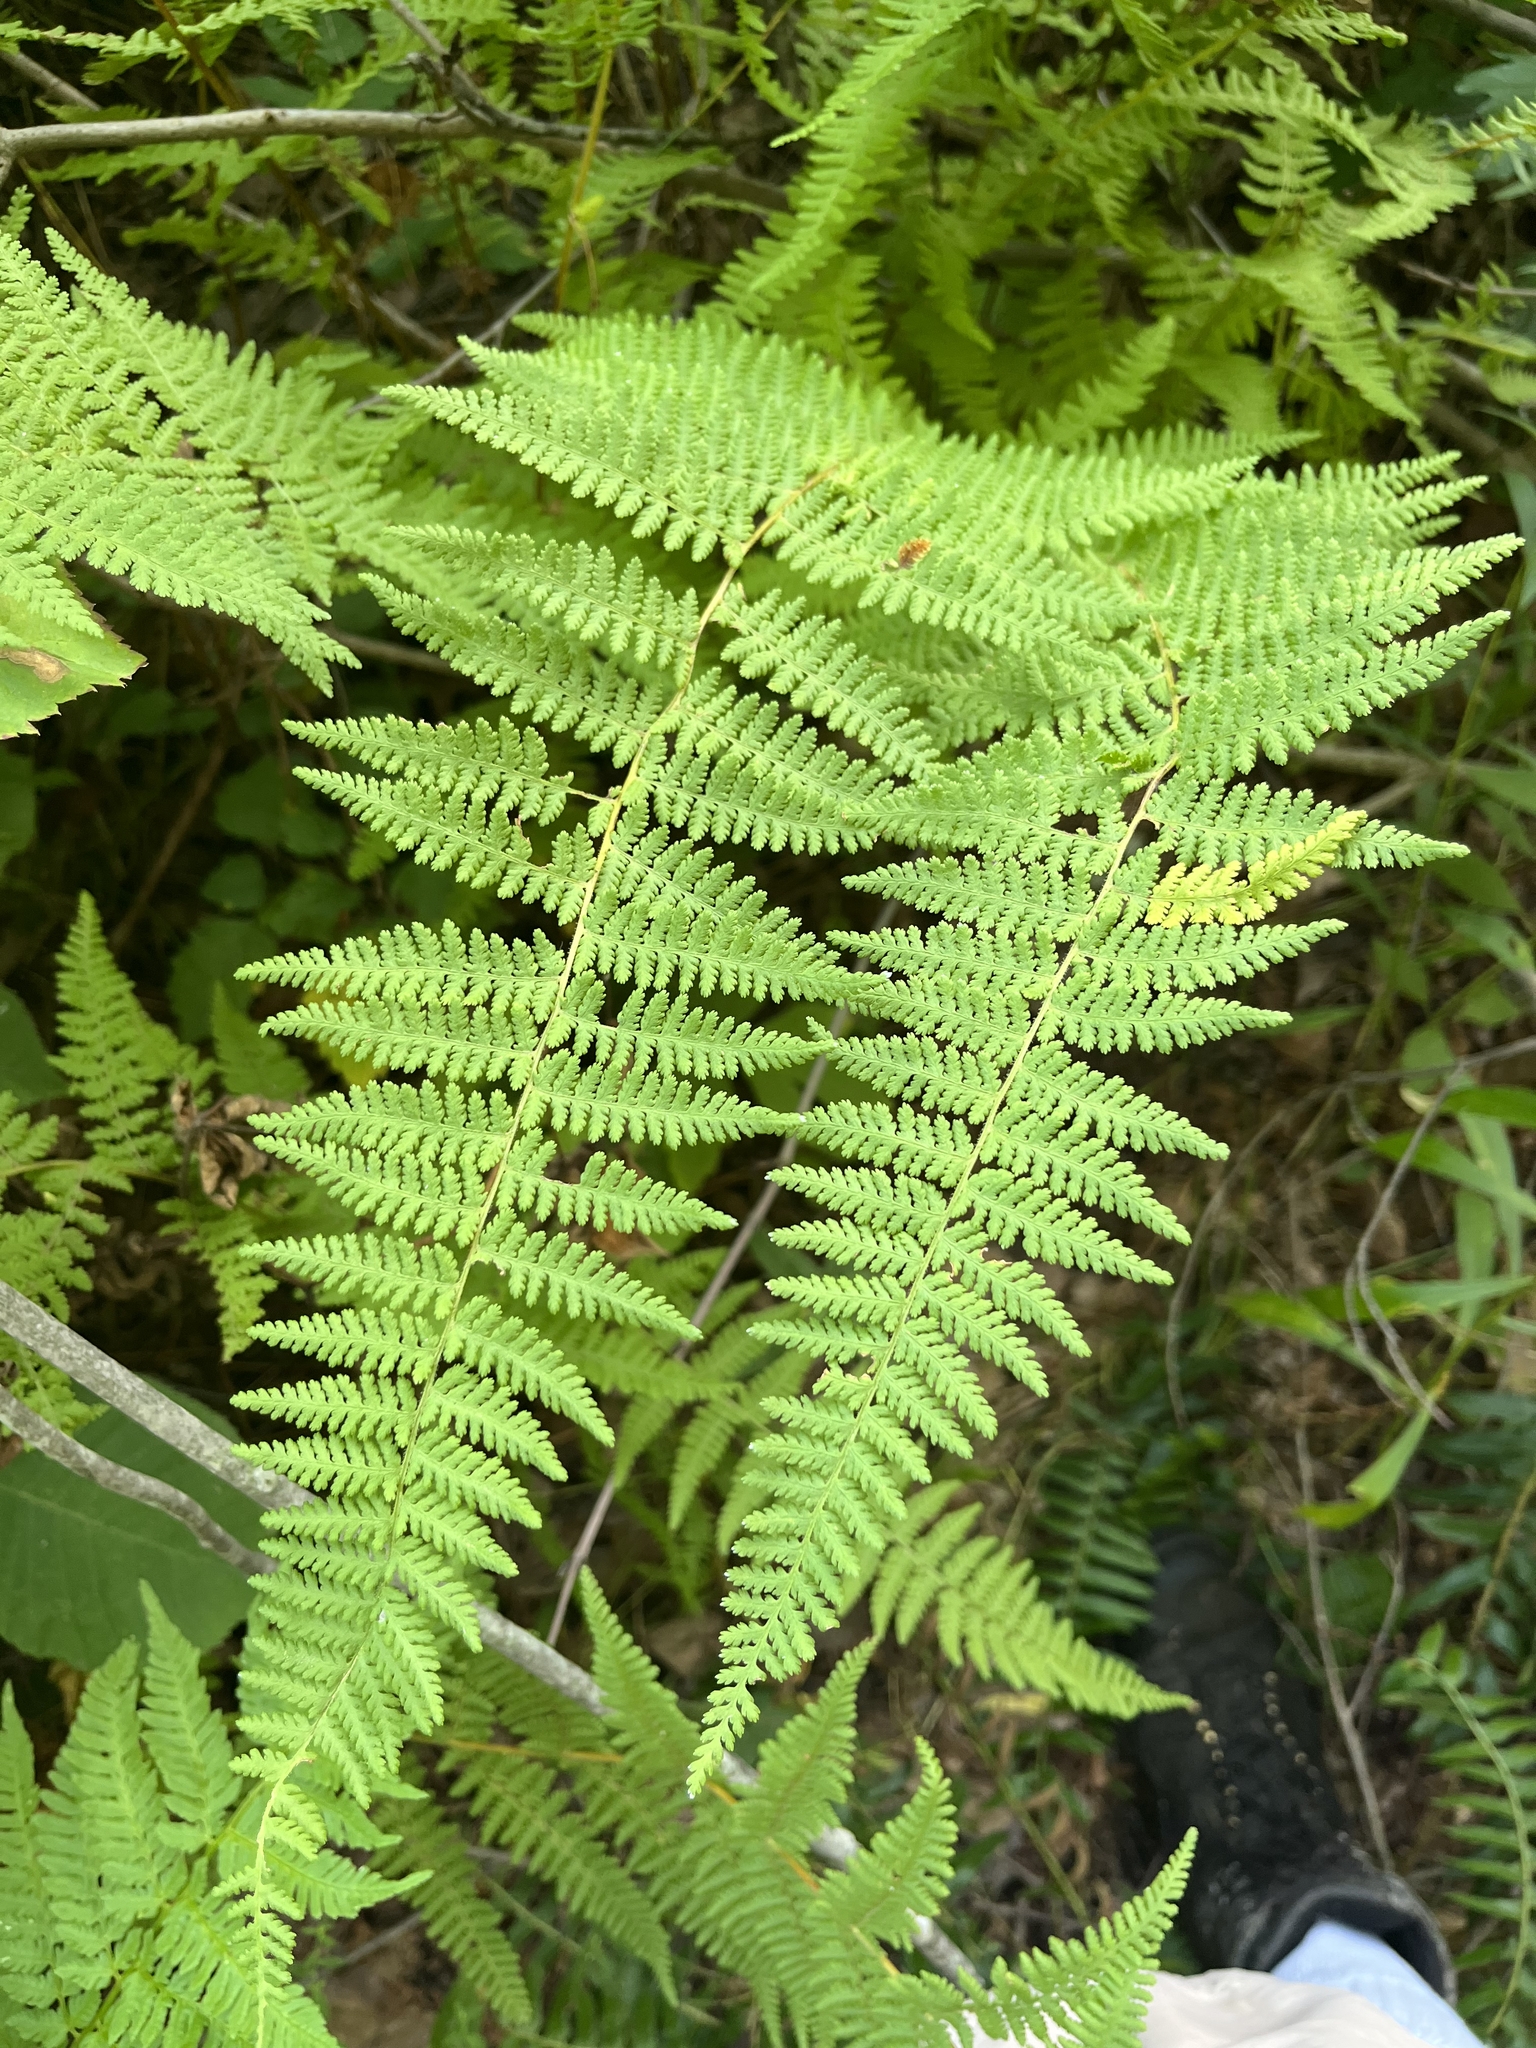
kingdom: Plantae
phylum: Tracheophyta
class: Polypodiopsida
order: Polypodiales
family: Dennstaedtiaceae
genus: Sitobolium
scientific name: Sitobolium punctilobum
